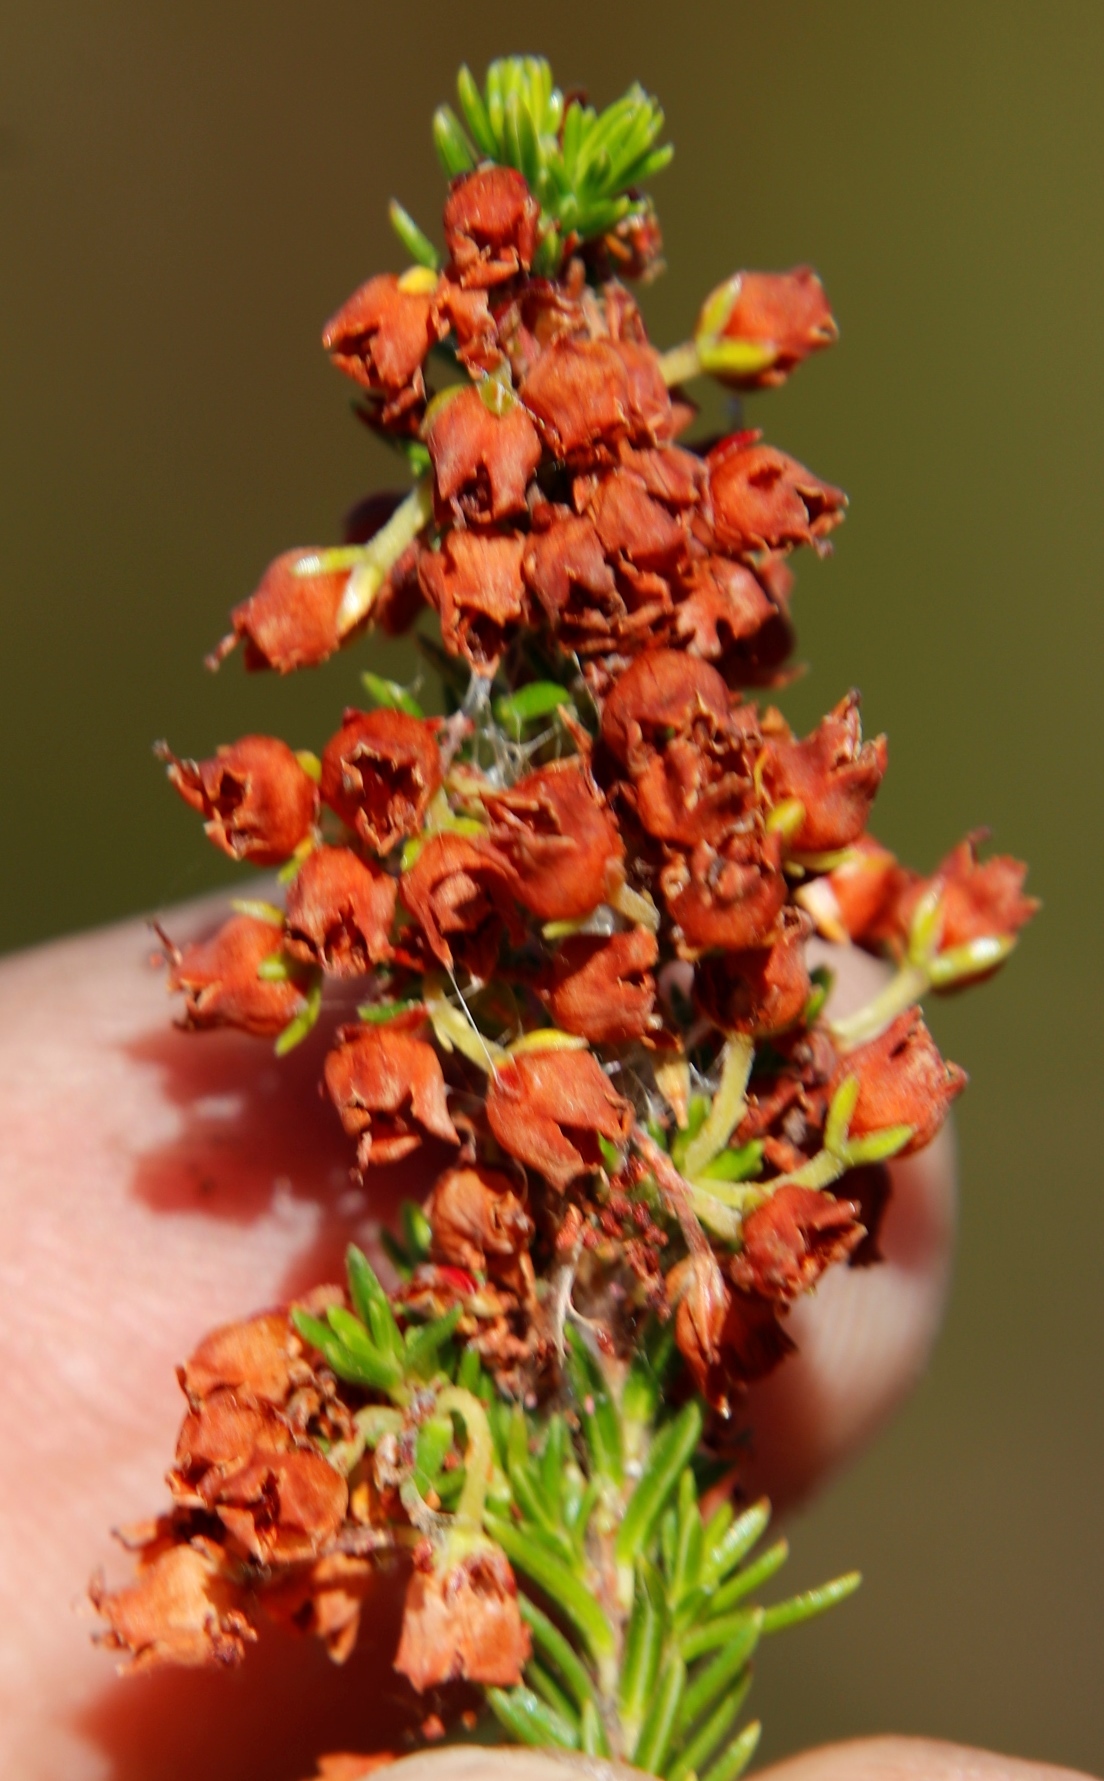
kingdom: Plantae
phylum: Tracheophyta
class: Magnoliopsida
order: Ericales
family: Ericaceae
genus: Erica
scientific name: Erica curvirostris
